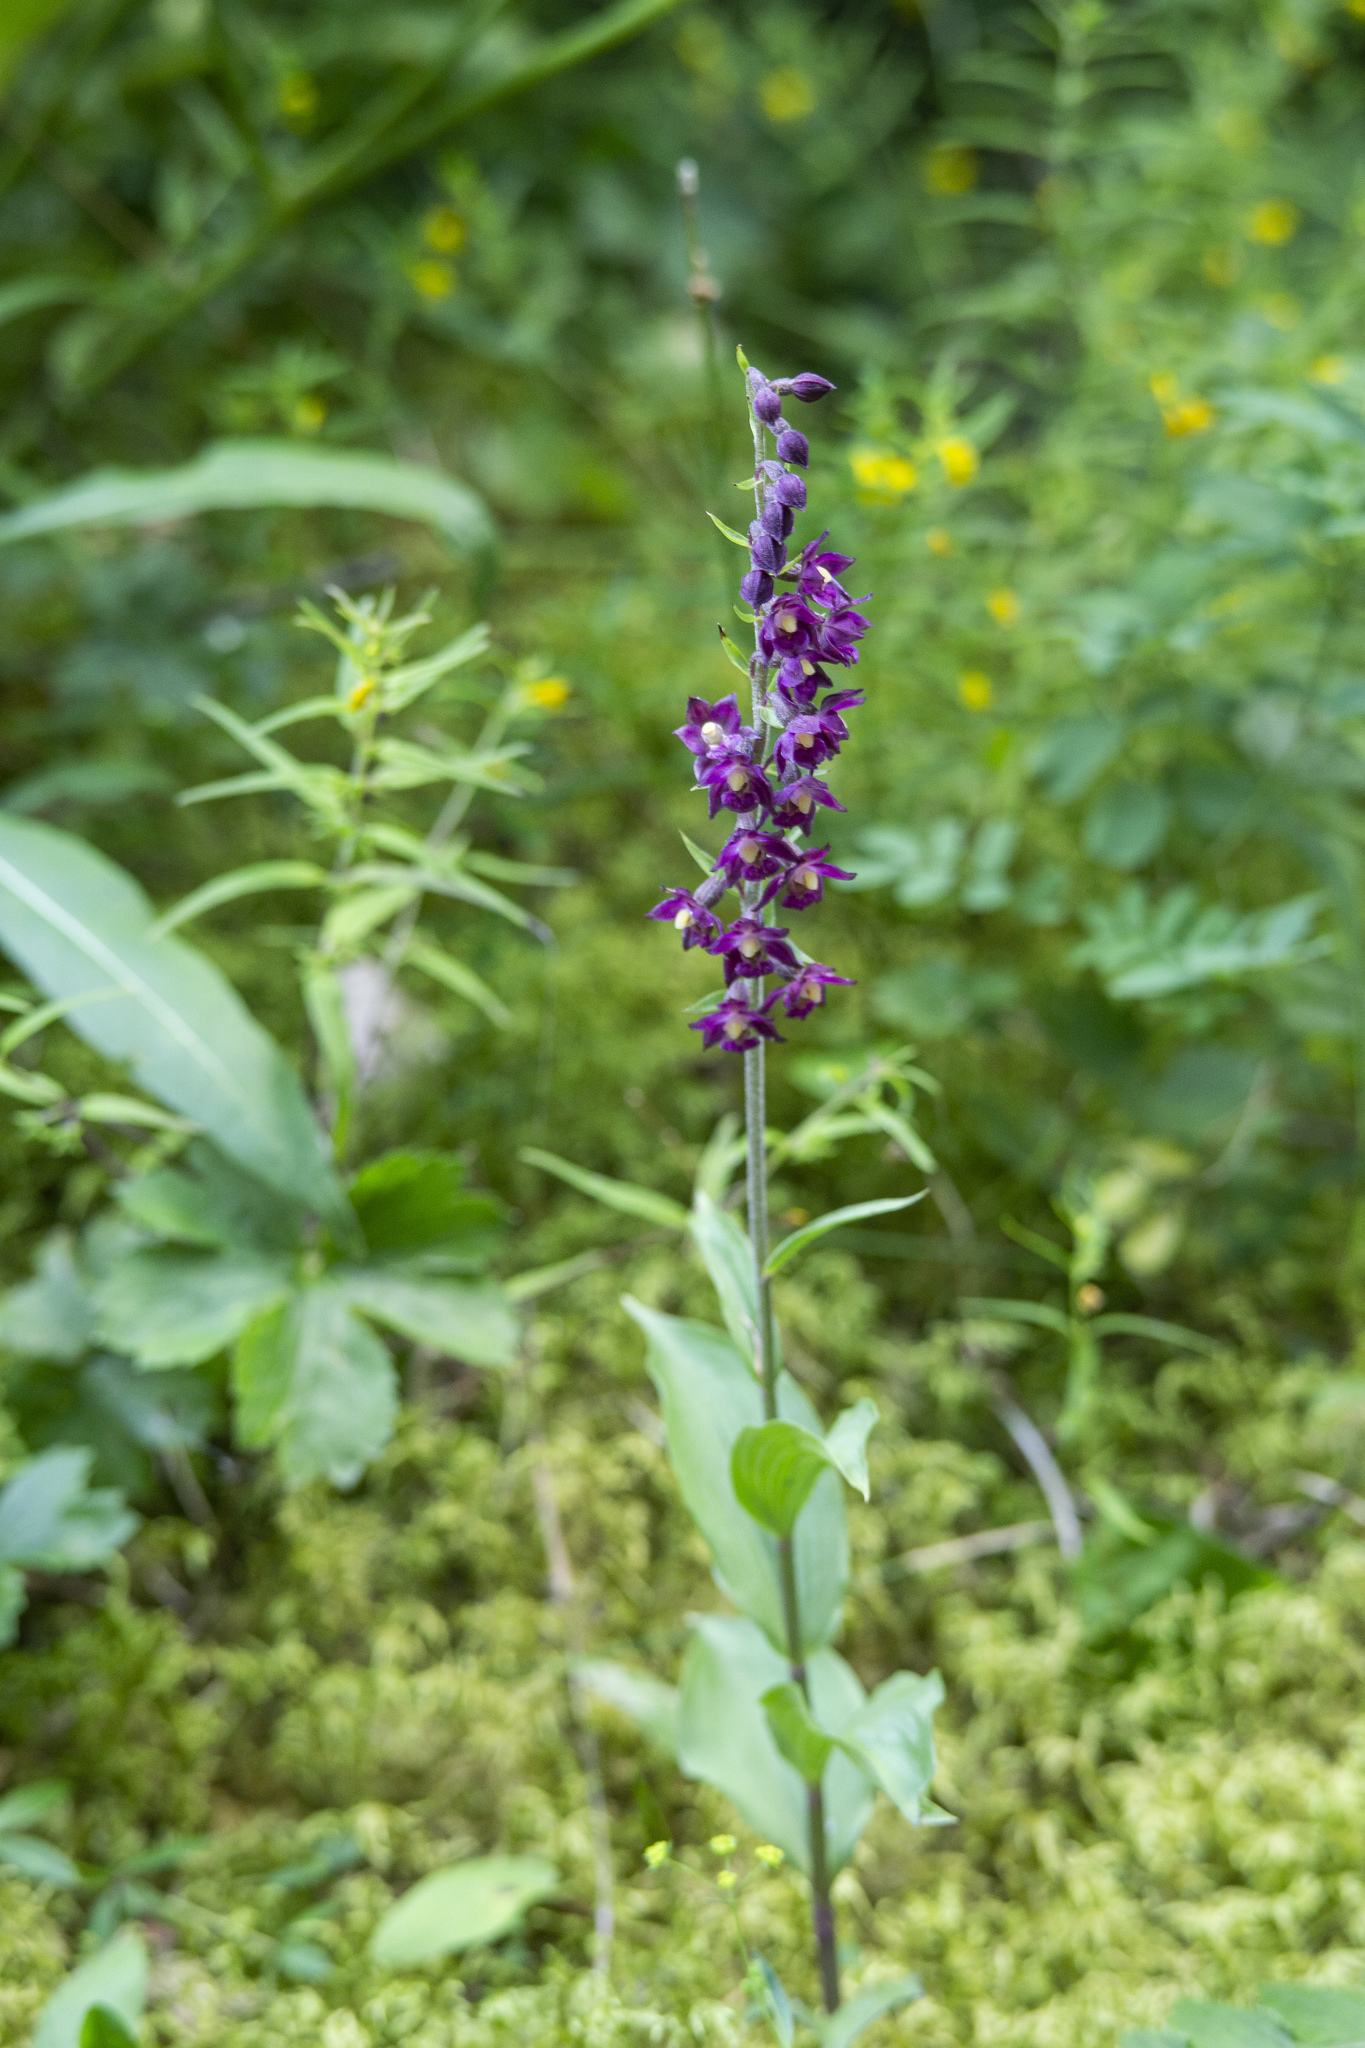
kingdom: Plantae
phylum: Tracheophyta
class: Liliopsida
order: Asparagales
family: Orchidaceae
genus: Epipactis
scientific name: Epipactis atrorubens
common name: Dark-red helleborine
